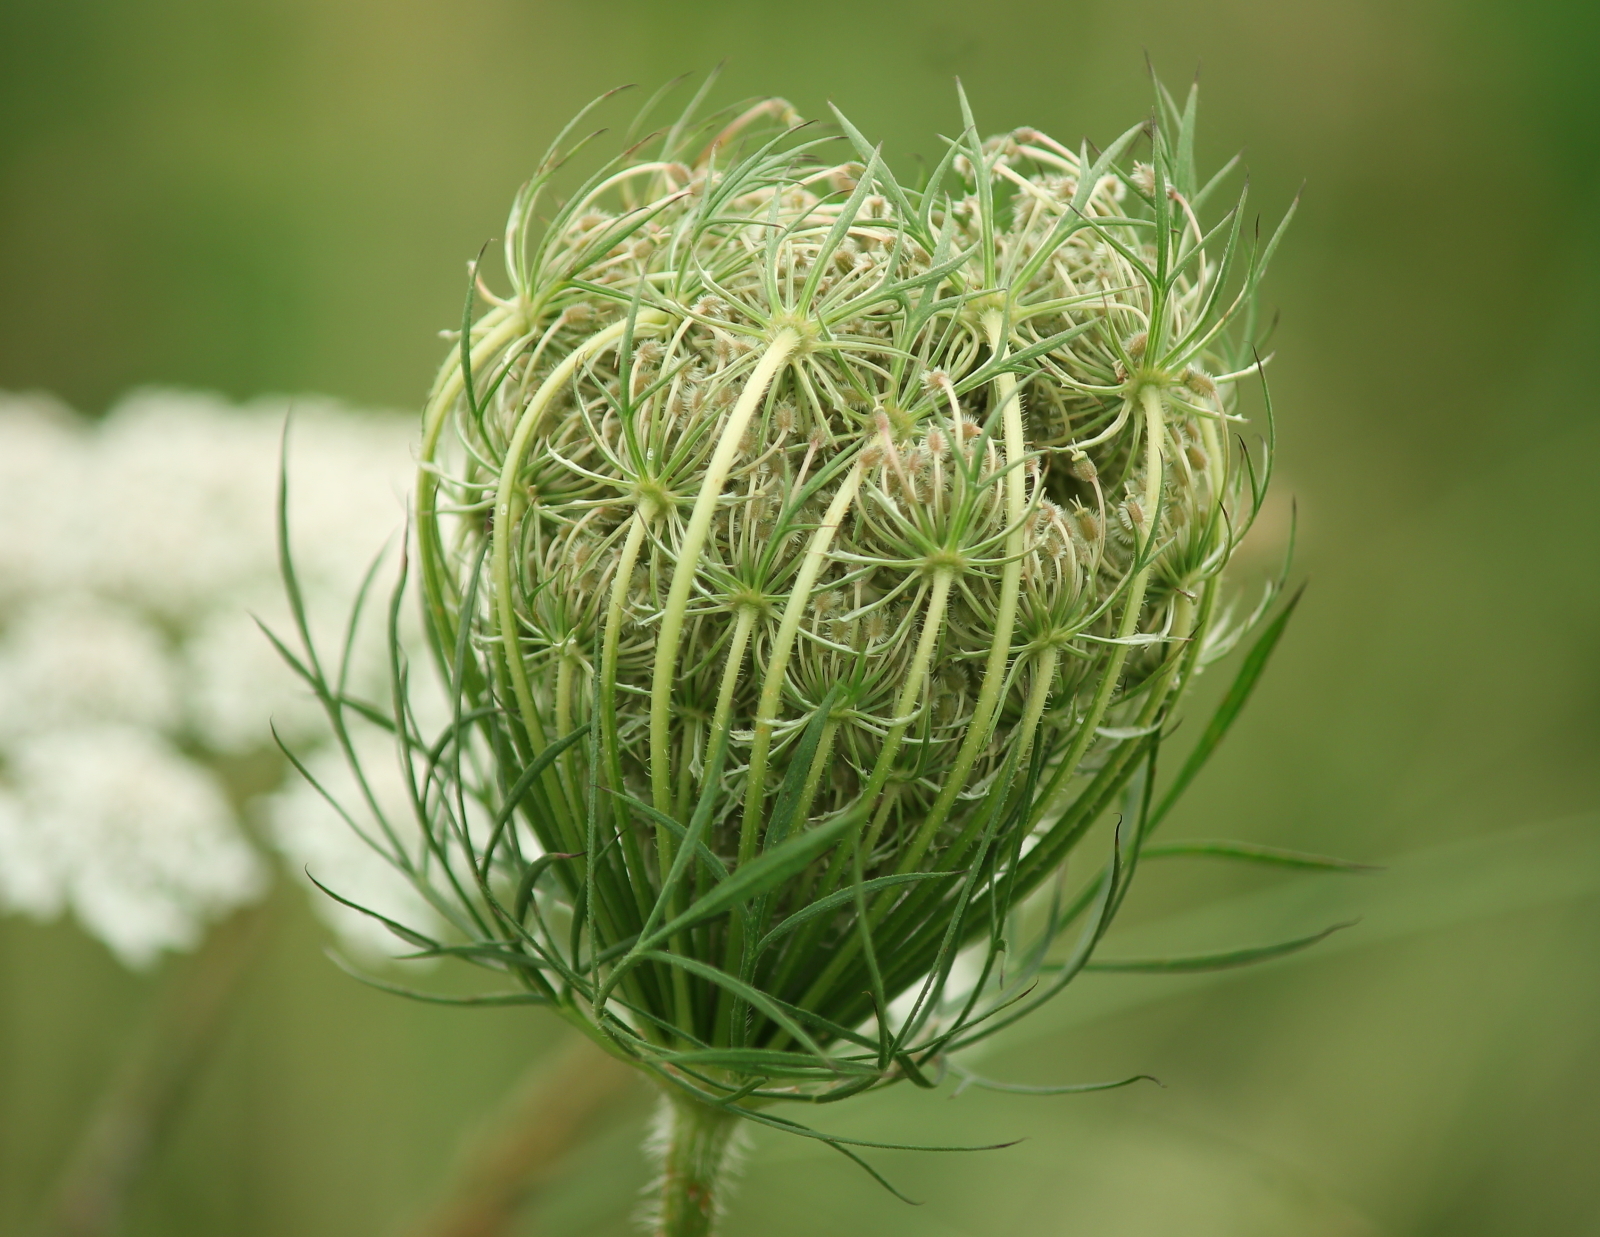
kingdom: Plantae
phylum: Tracheophyta
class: Magnoliopsida
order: Apiales
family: Apiaceae
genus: Daucus
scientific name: Daucus carota
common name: Wild carrot
